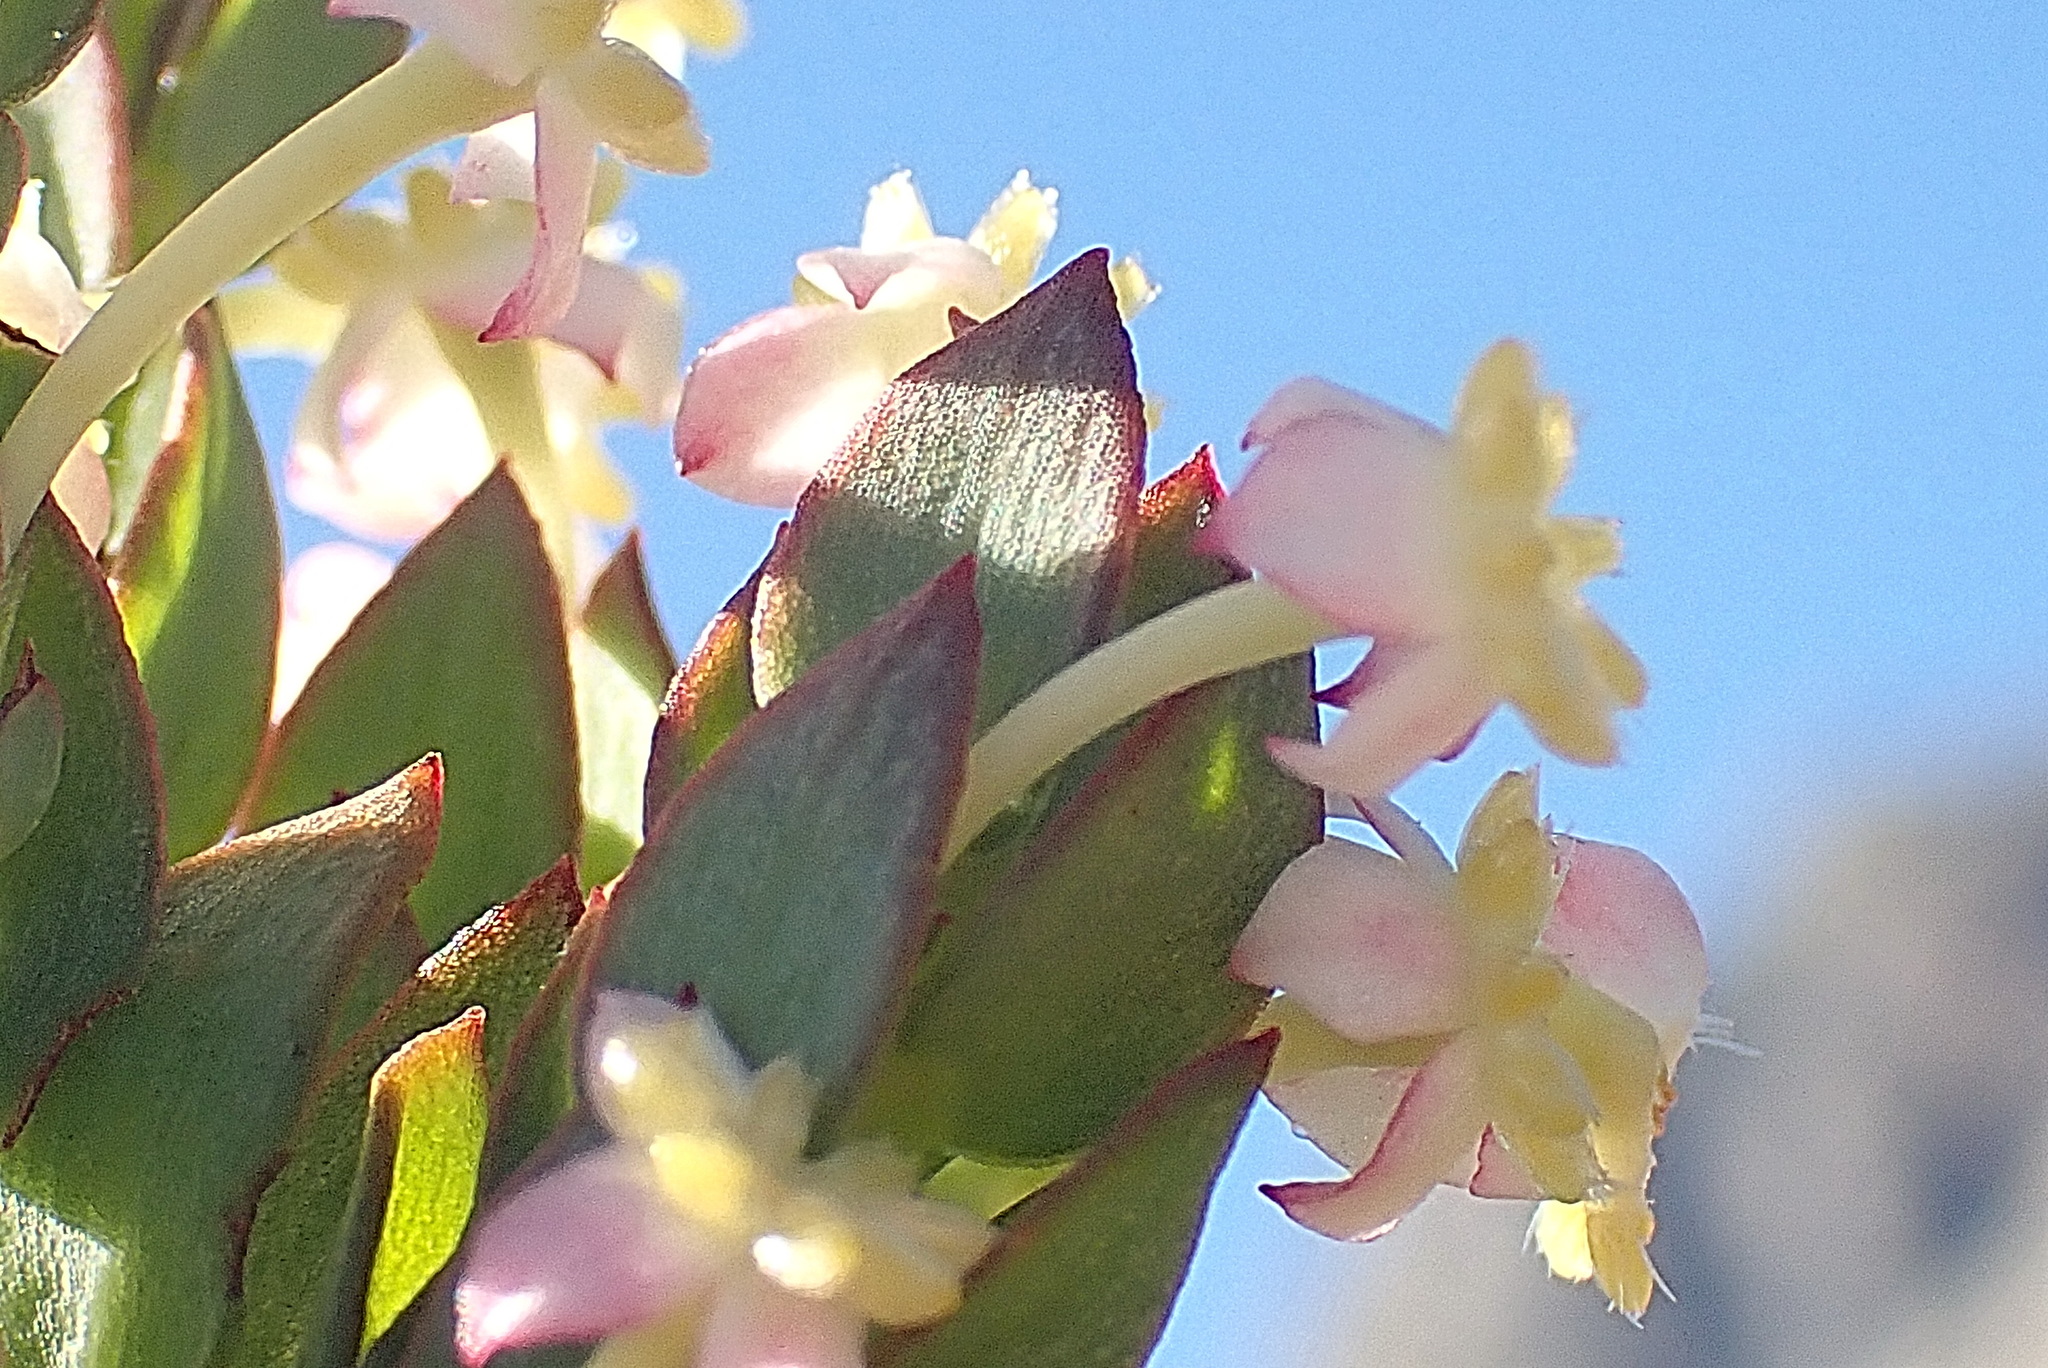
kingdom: Plantae
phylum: Tracheophyta
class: Magnoliopsida
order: Malvales
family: Thymelaeaceae
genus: Struthiola
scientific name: Struthiola ciliata
